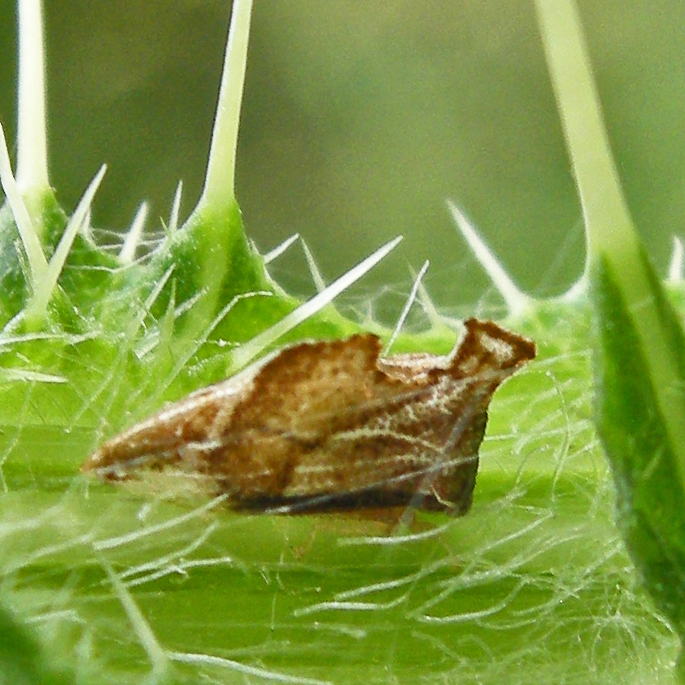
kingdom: Animalia
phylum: Arthropoda
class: Insecta
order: Hemiptera
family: Membracidae
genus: Entylia
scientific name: Entylia carinata
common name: Keeled treehopper
